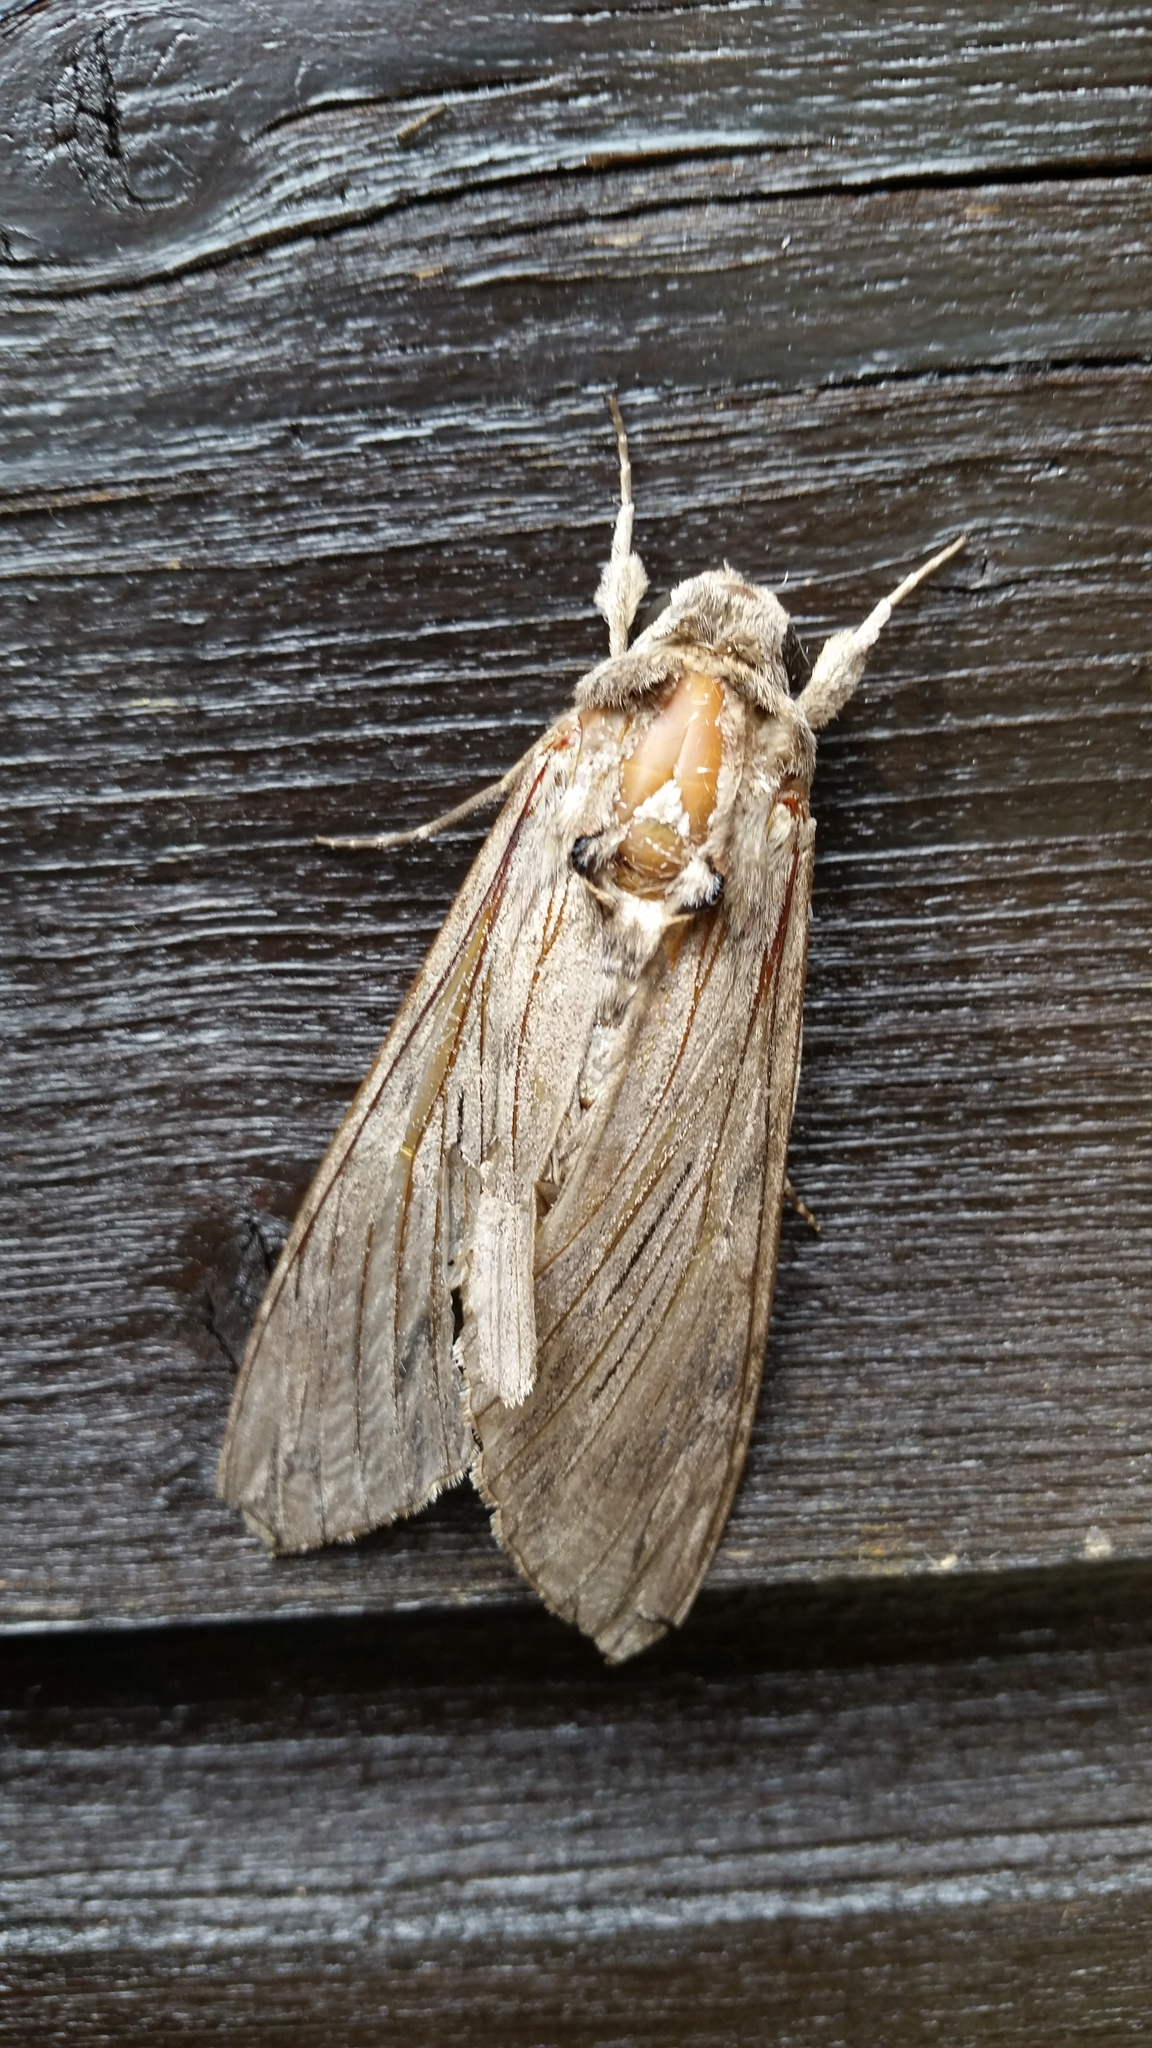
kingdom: Animalia
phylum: Arthropoda
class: Insecta
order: Lepidoptera
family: Sphingidae
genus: Agrius
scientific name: Agrius convolvuli
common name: Convolvulus hawkmoth
